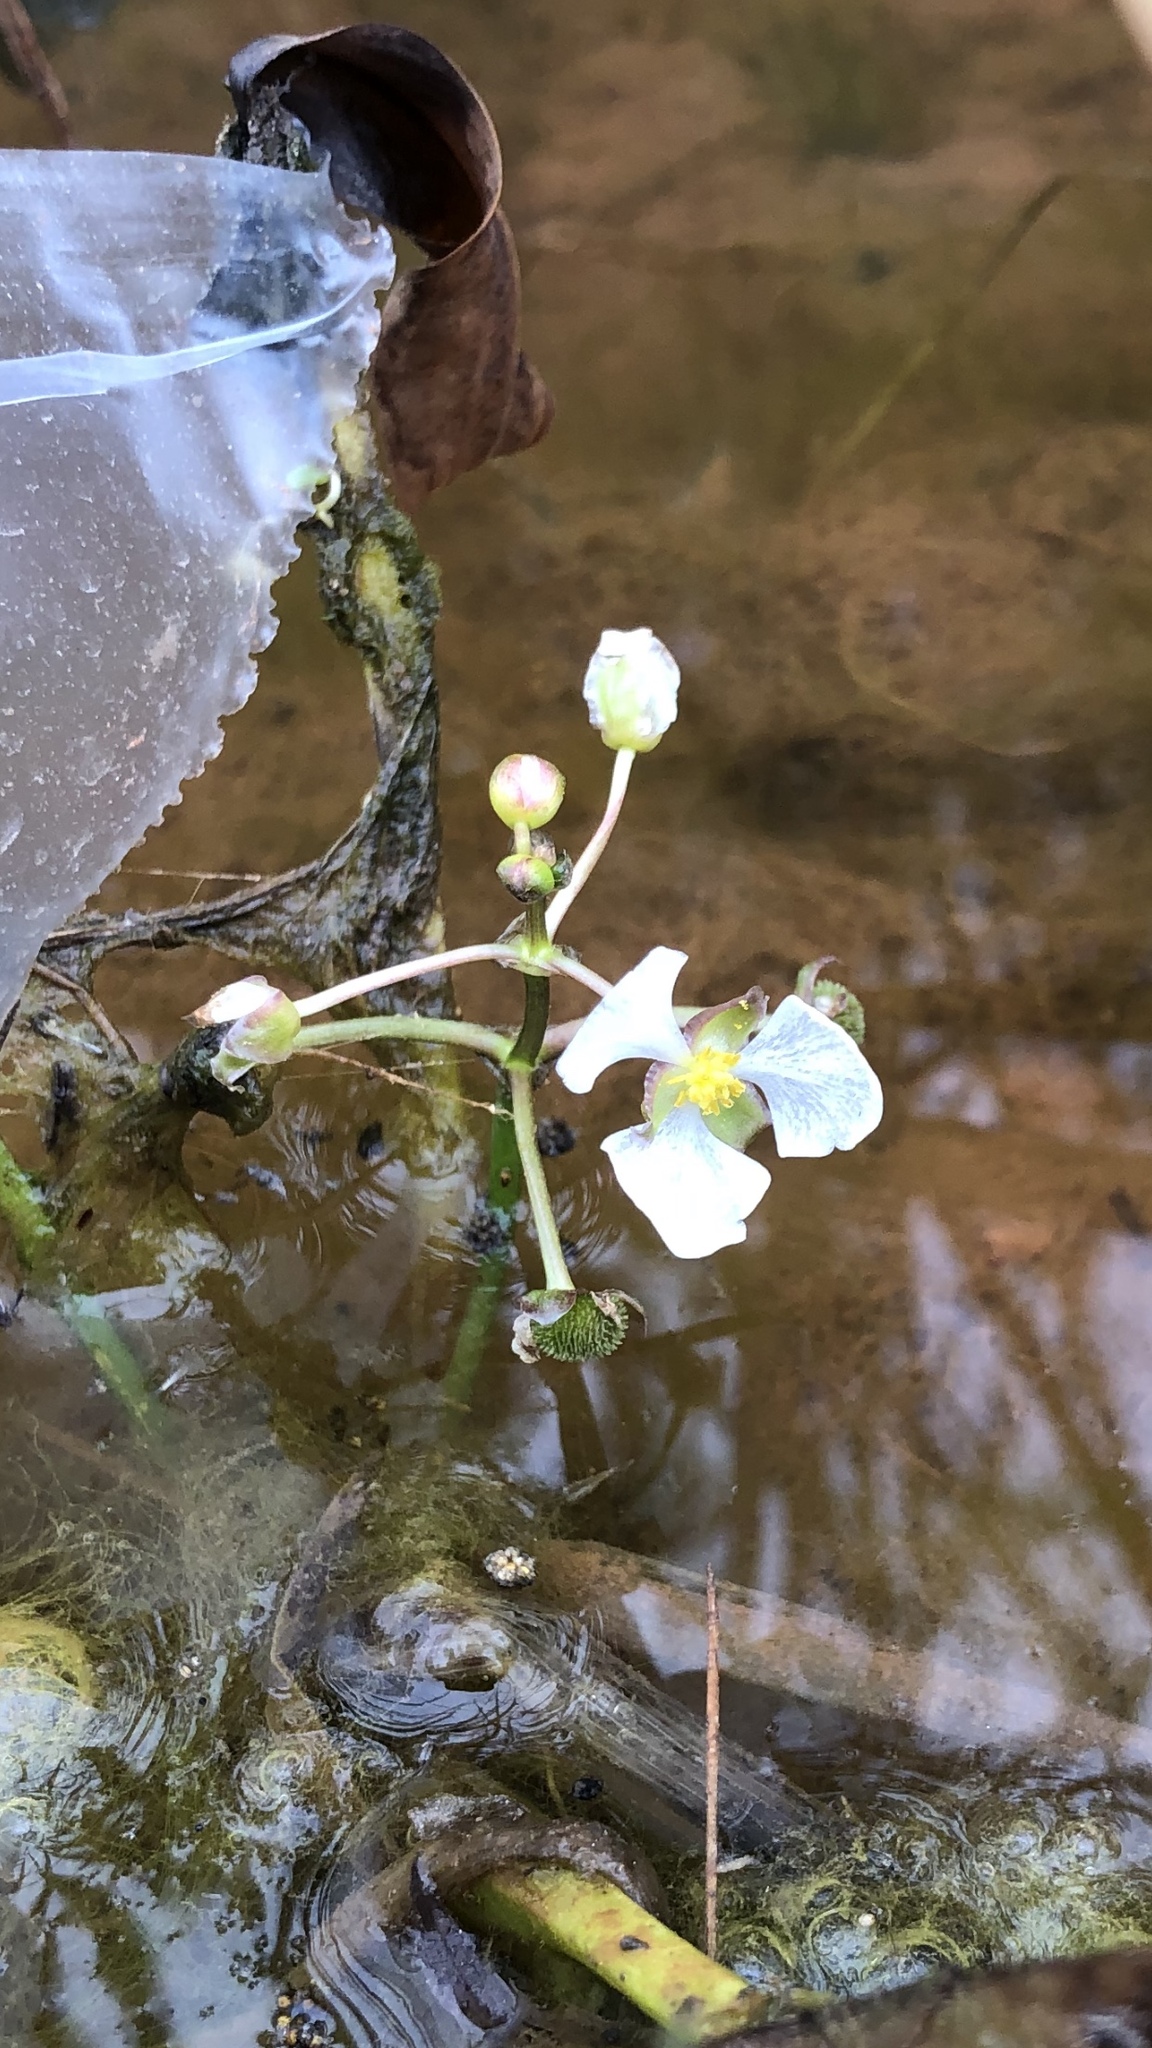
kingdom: Plantae
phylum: Tracheophyta
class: Liliopsida
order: Alismatales
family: Alismataceae
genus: Sagittaria
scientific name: Sagittaria platyphylla
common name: Broad-leaf arrowhead
